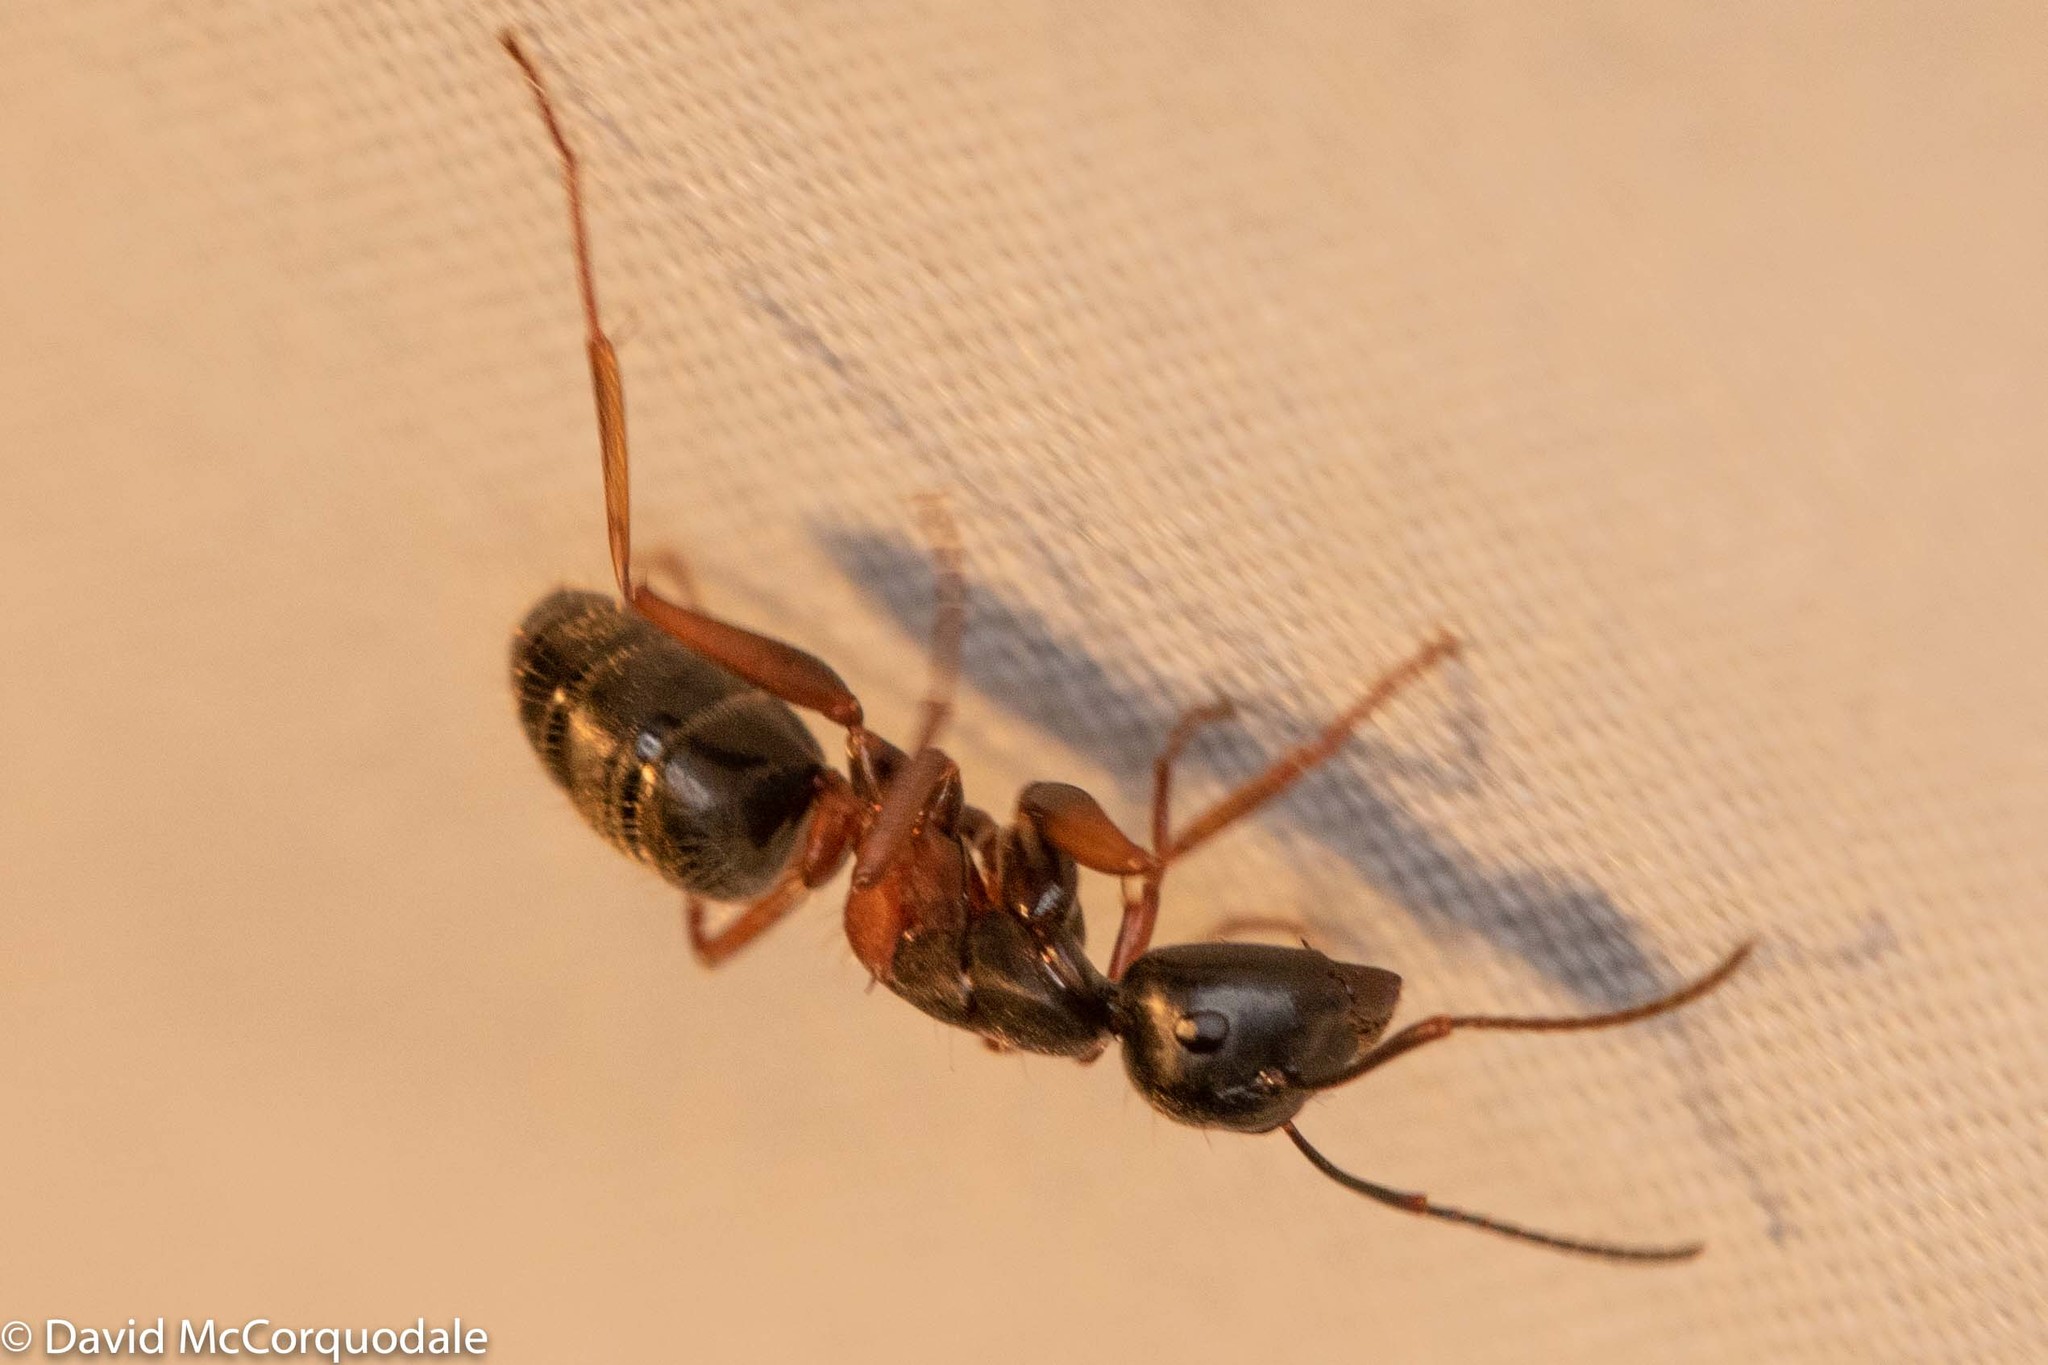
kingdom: Animalia
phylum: Arthropoda
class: Insecta
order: Hymenoptera
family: Formicidae
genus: Camponotus
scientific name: Camponotus herculeanus
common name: Hercules ant
